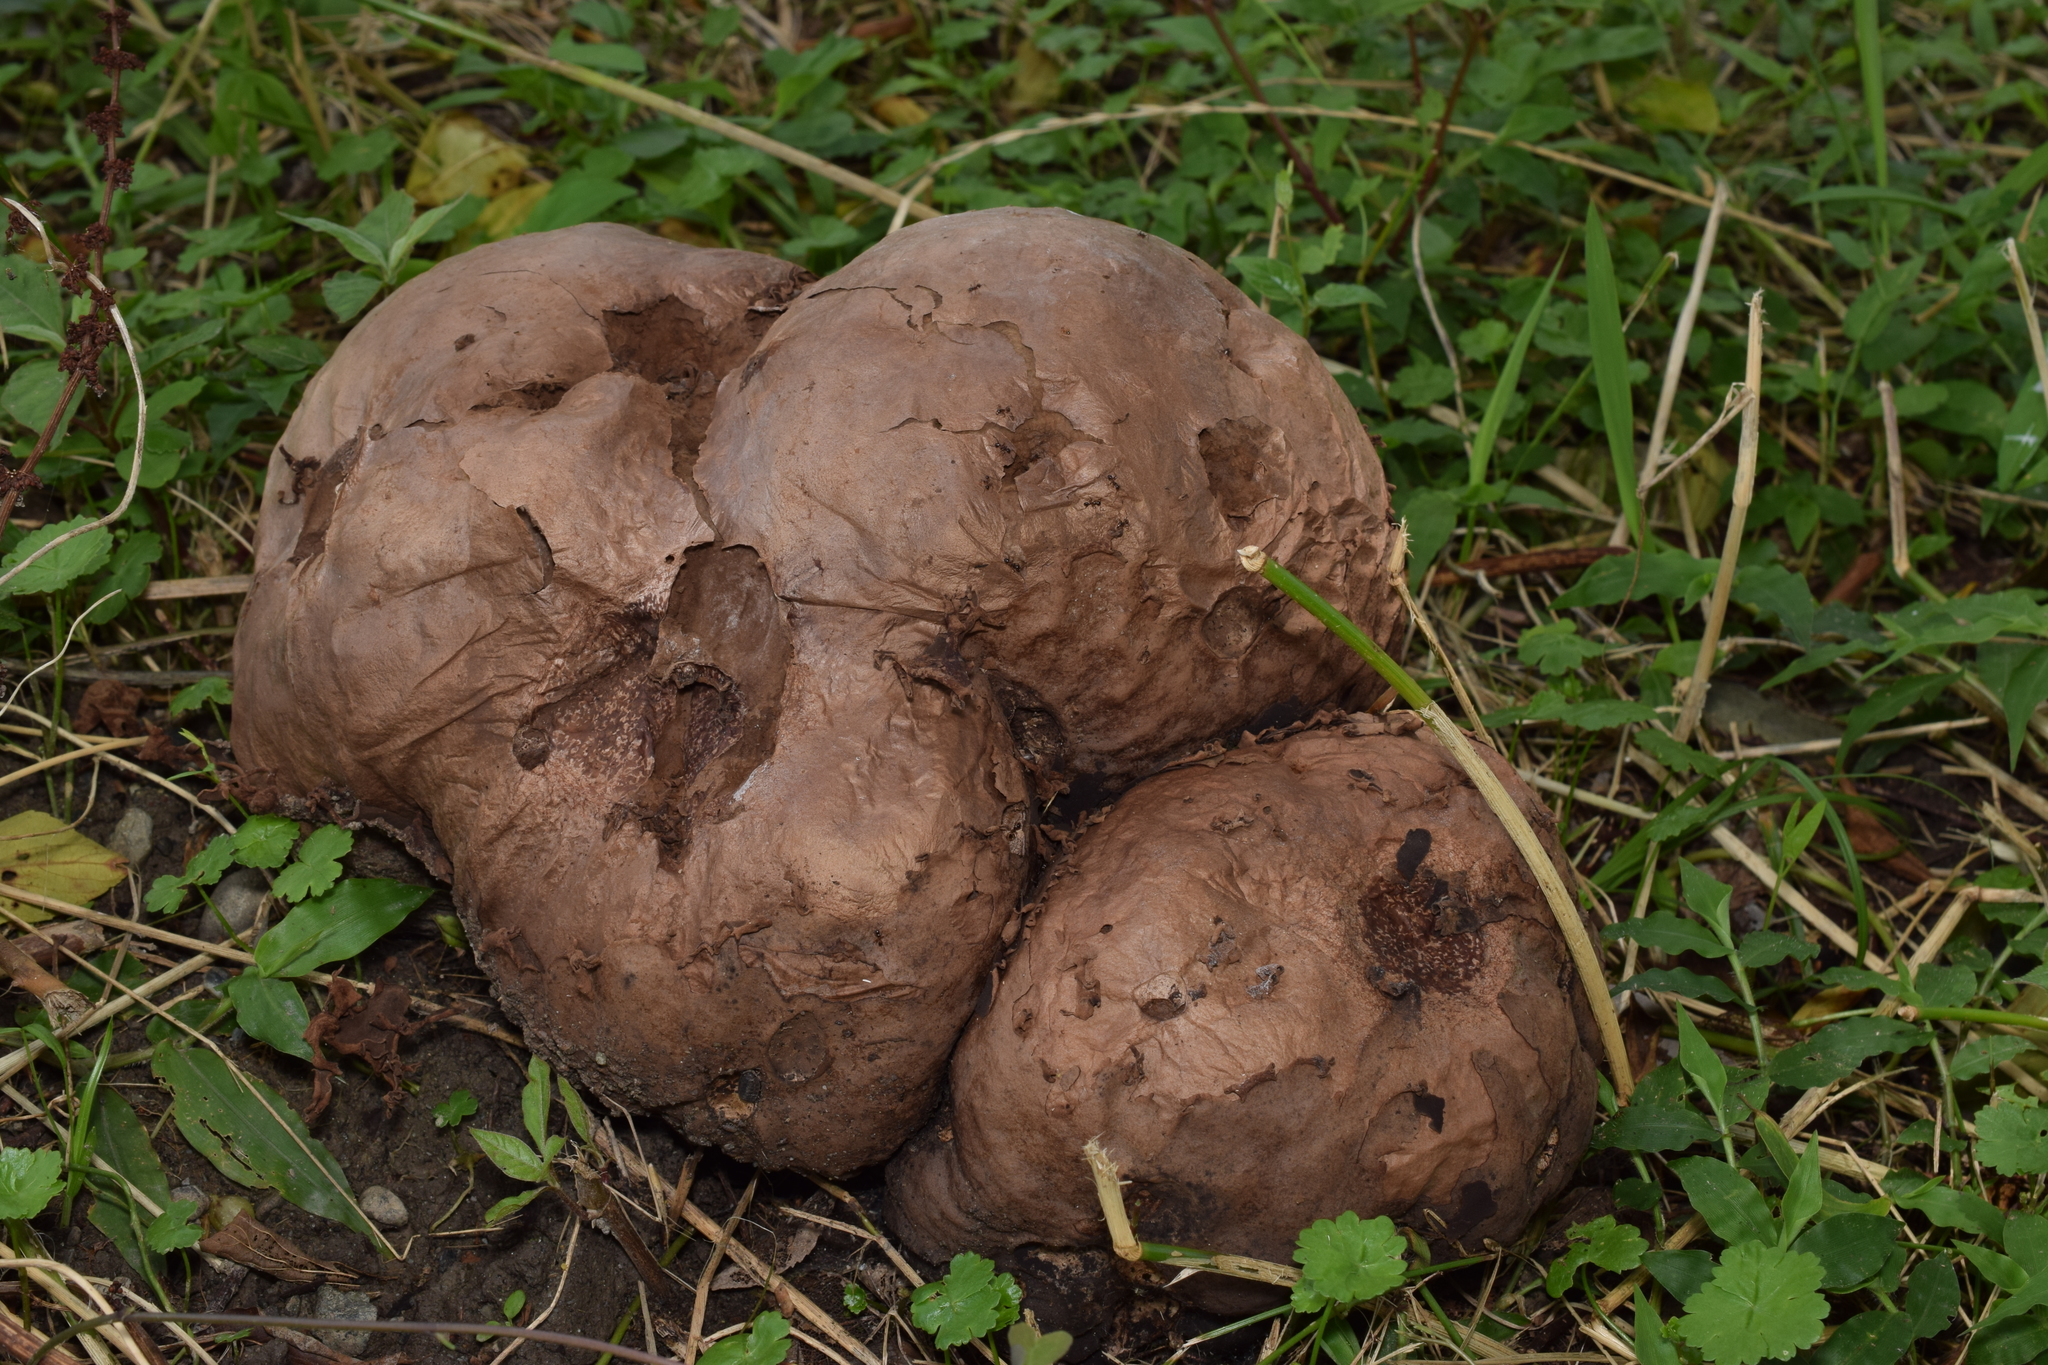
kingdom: Fungi
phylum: Basidiomycota
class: Agaricomycetes
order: Agaricales
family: Lycoperdaceae
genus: Calvatia
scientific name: Calvatia nipponica
